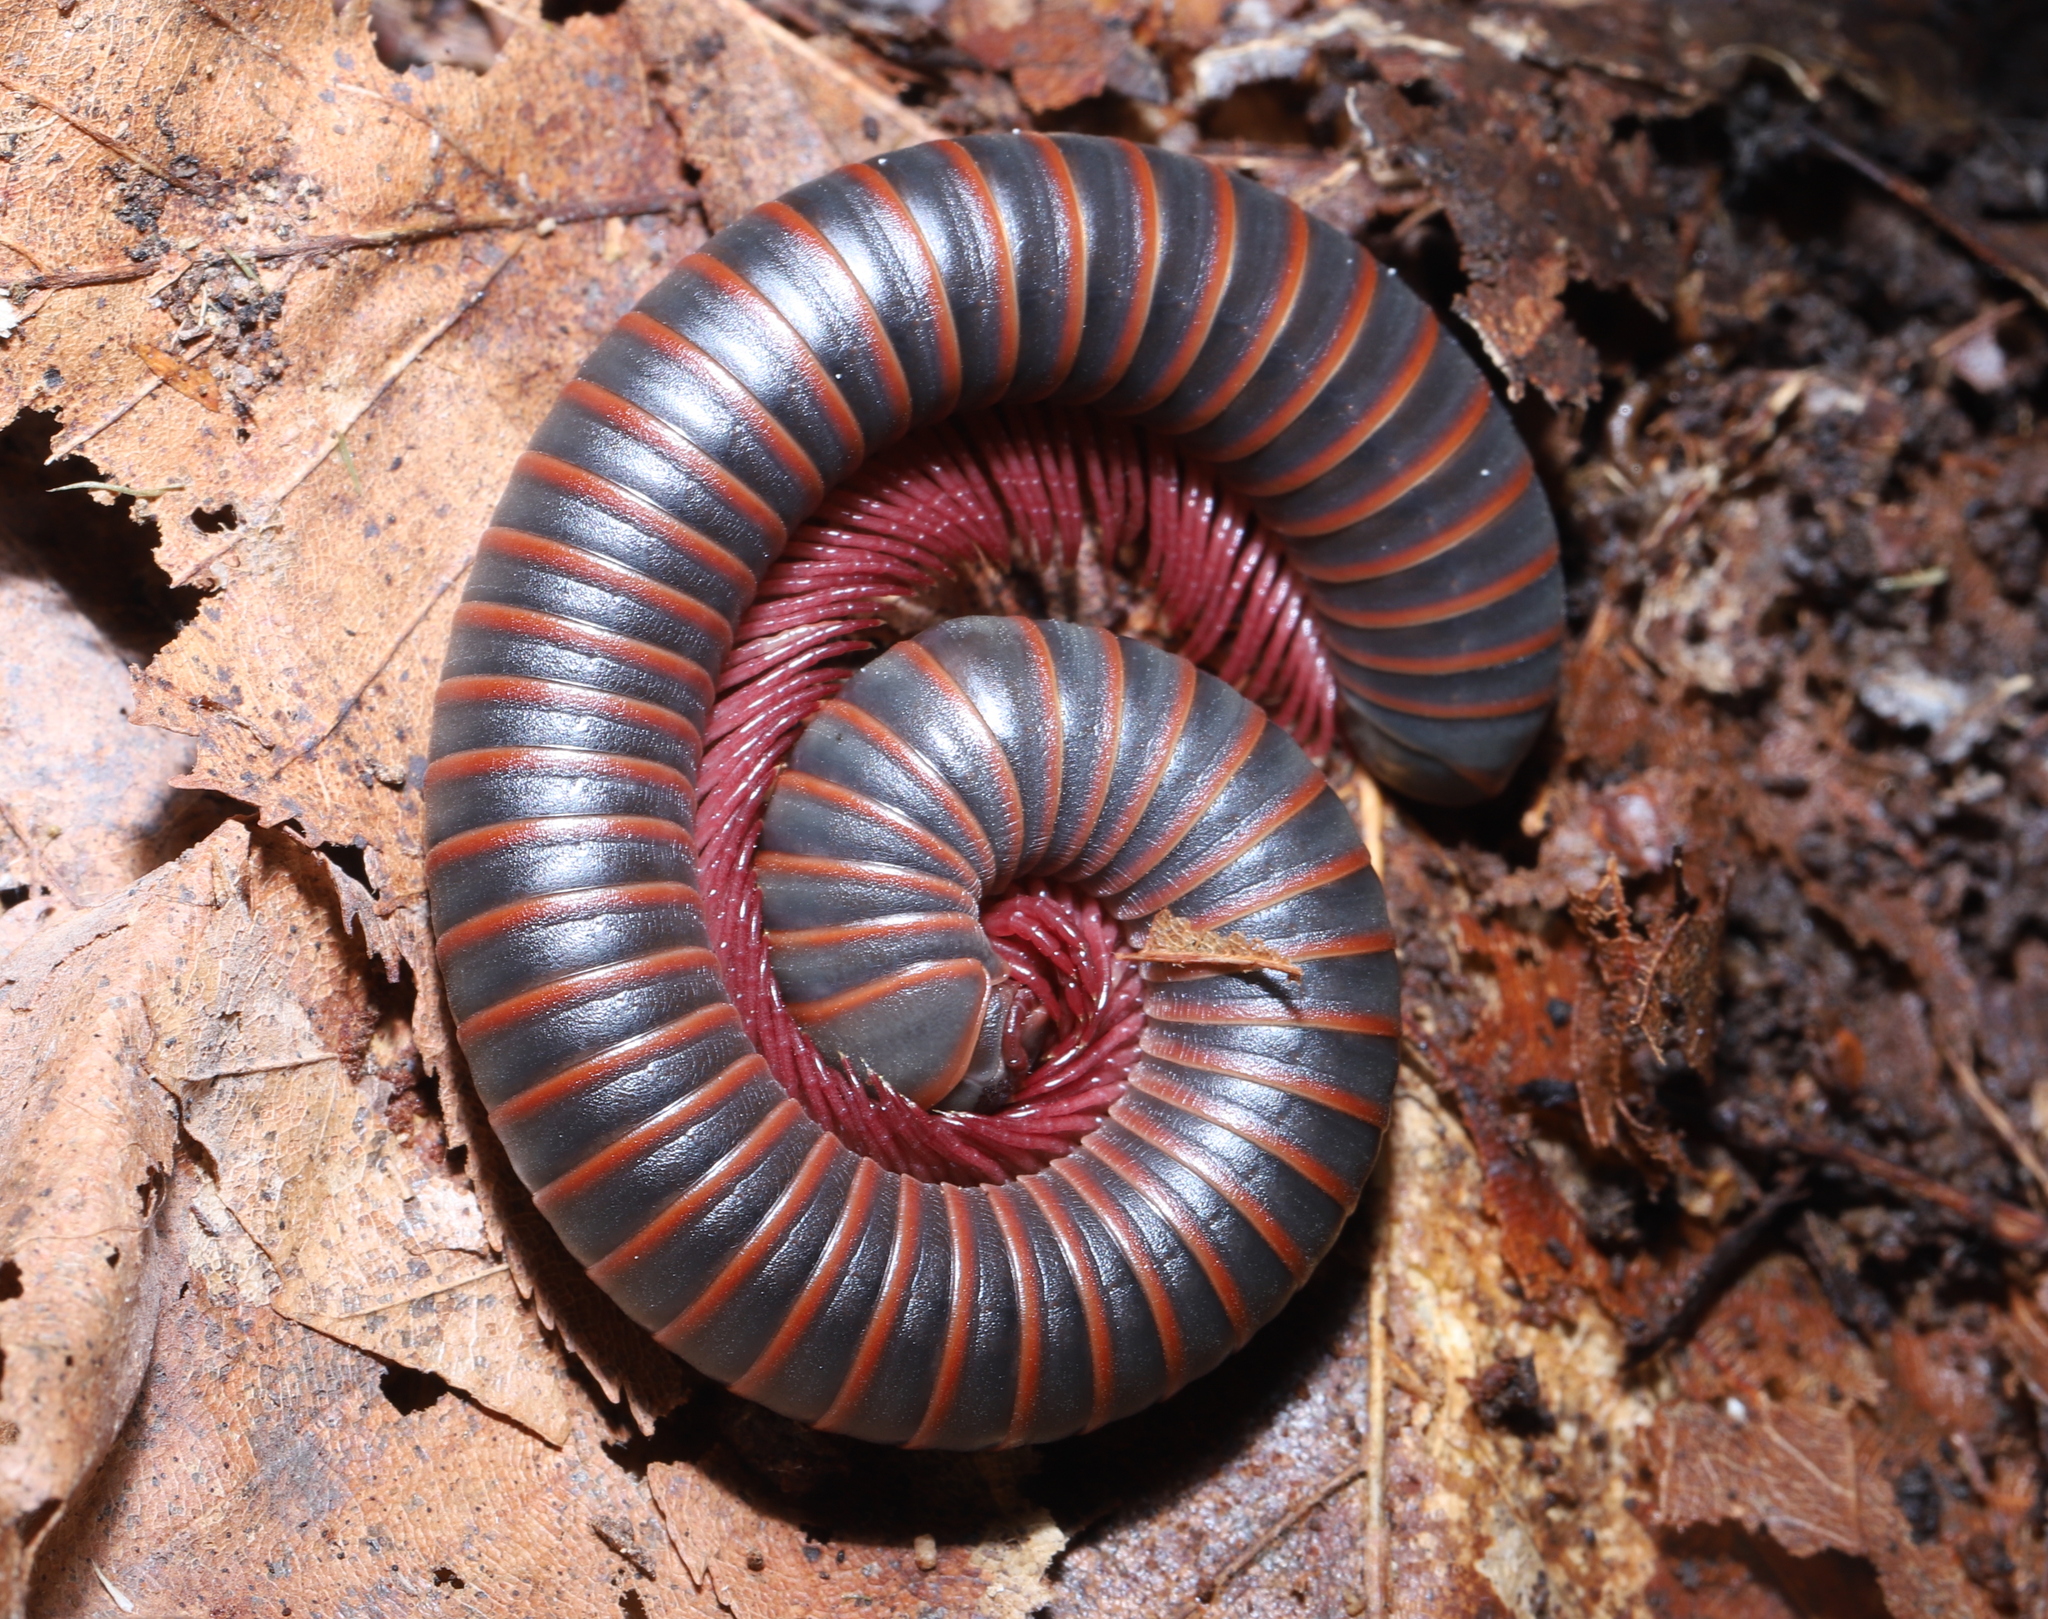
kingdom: Animalia
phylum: Arthropoda
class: Diplopoda
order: Spirobolida
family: Spirobolidae
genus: Narceus
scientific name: Narceus americanus
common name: American giant millipede
